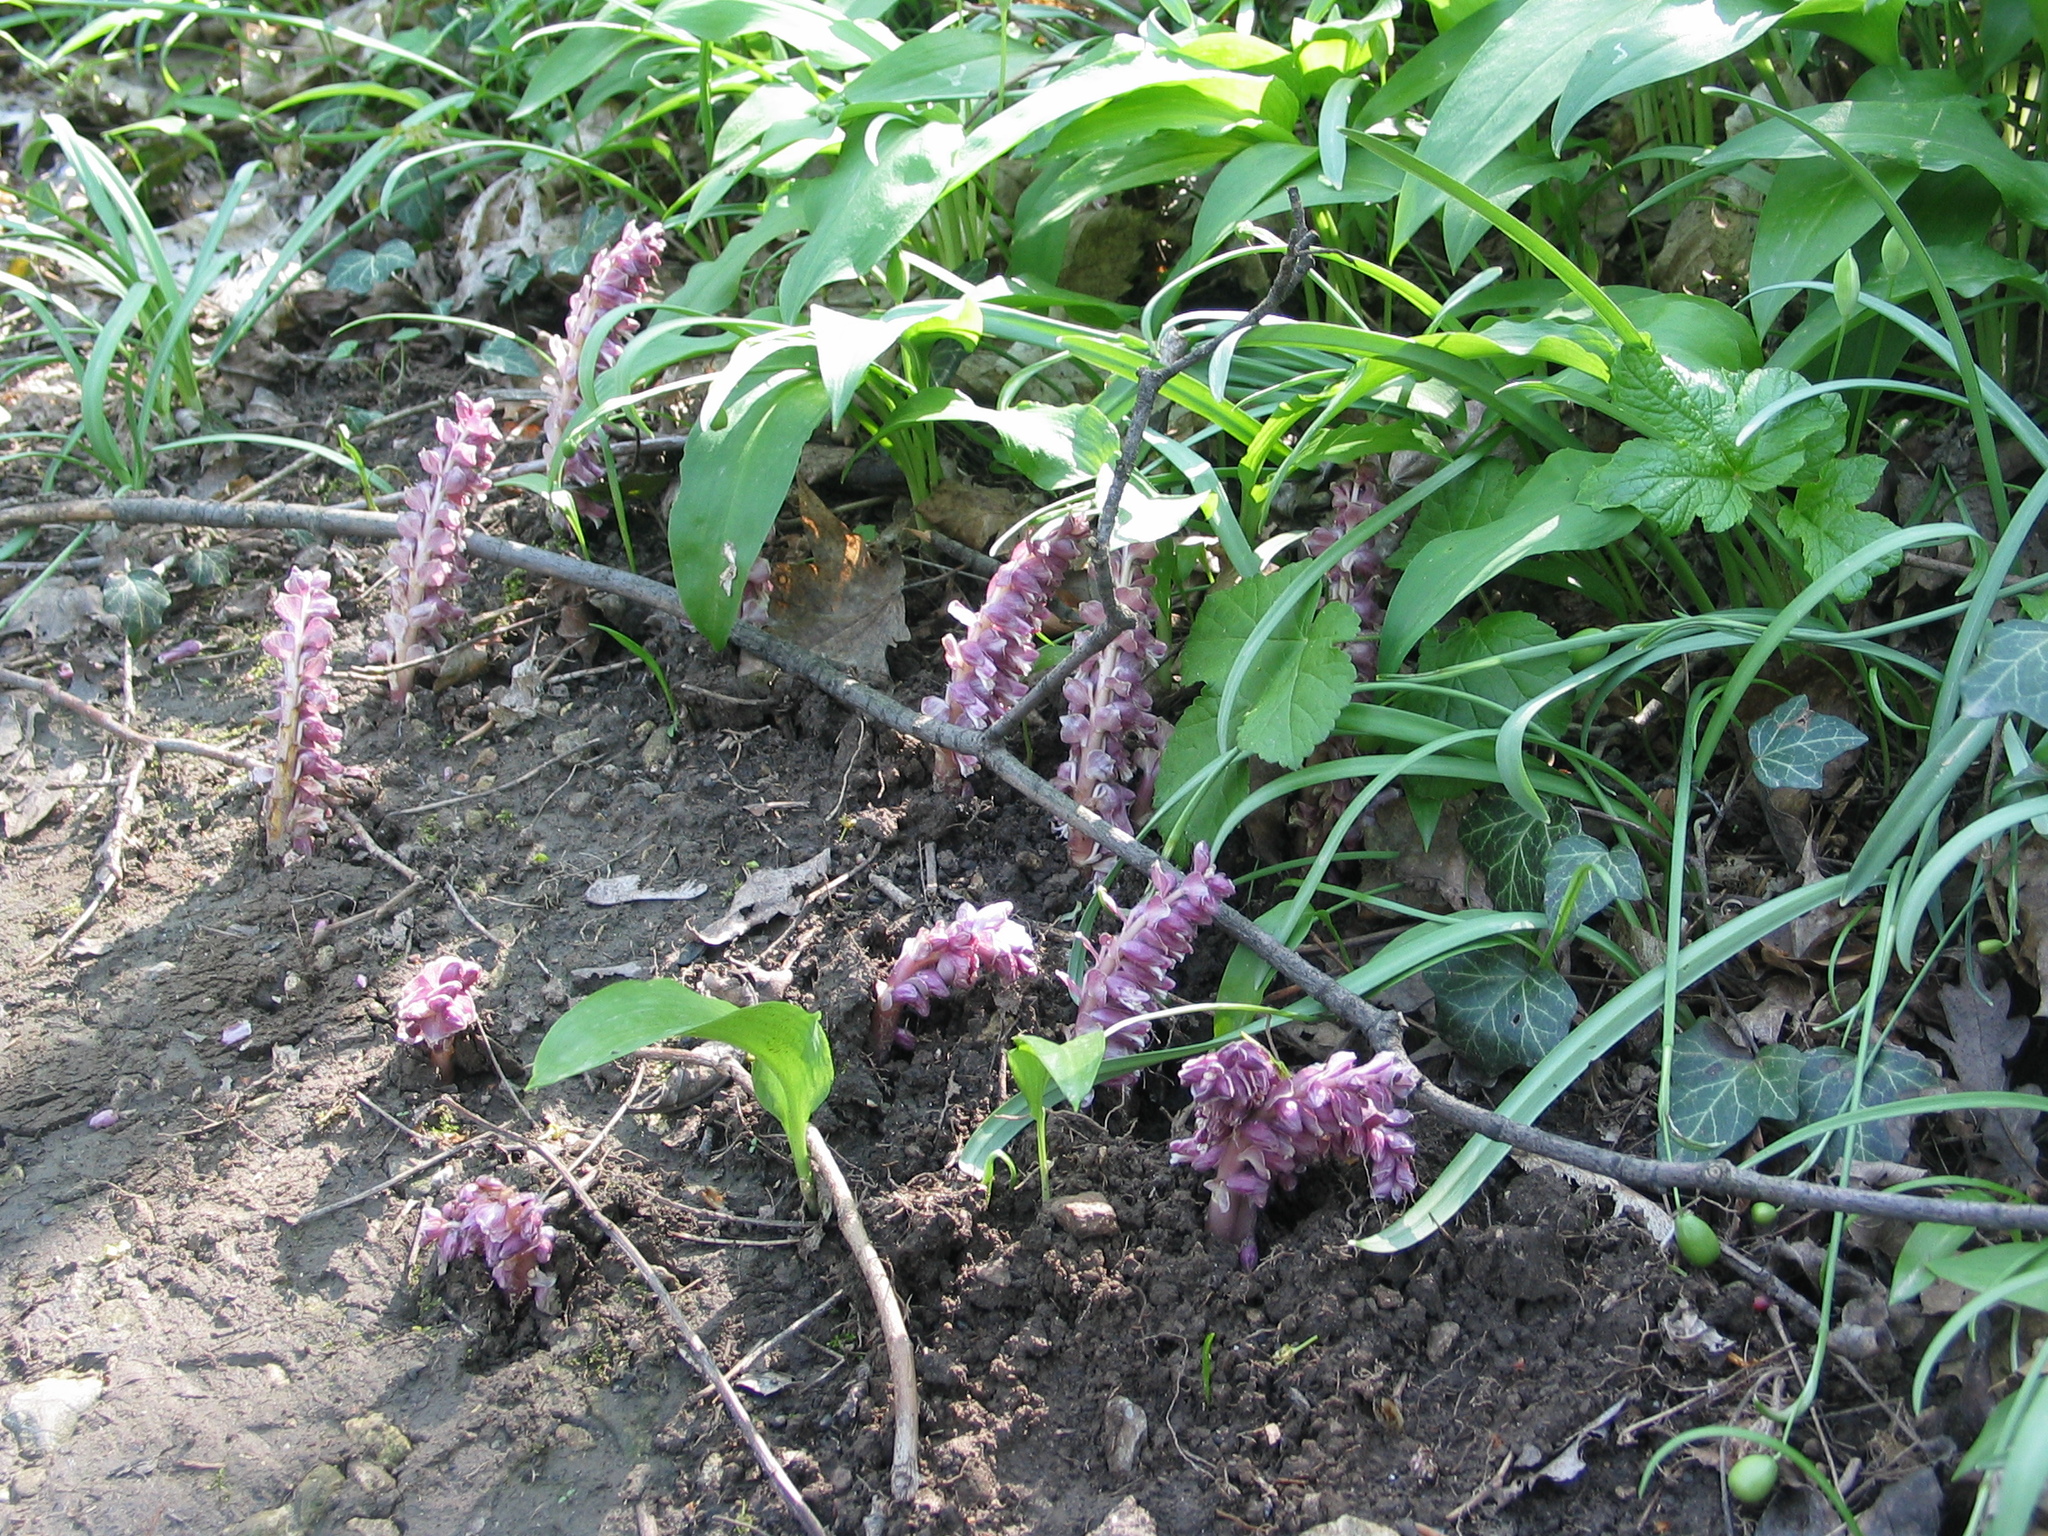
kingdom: Plantae
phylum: Tracheophyta
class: Magnoliopsida
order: Lamiales
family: Orobanchaceae
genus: Lathraea
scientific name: Lathraea squamaria
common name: Toothwort
